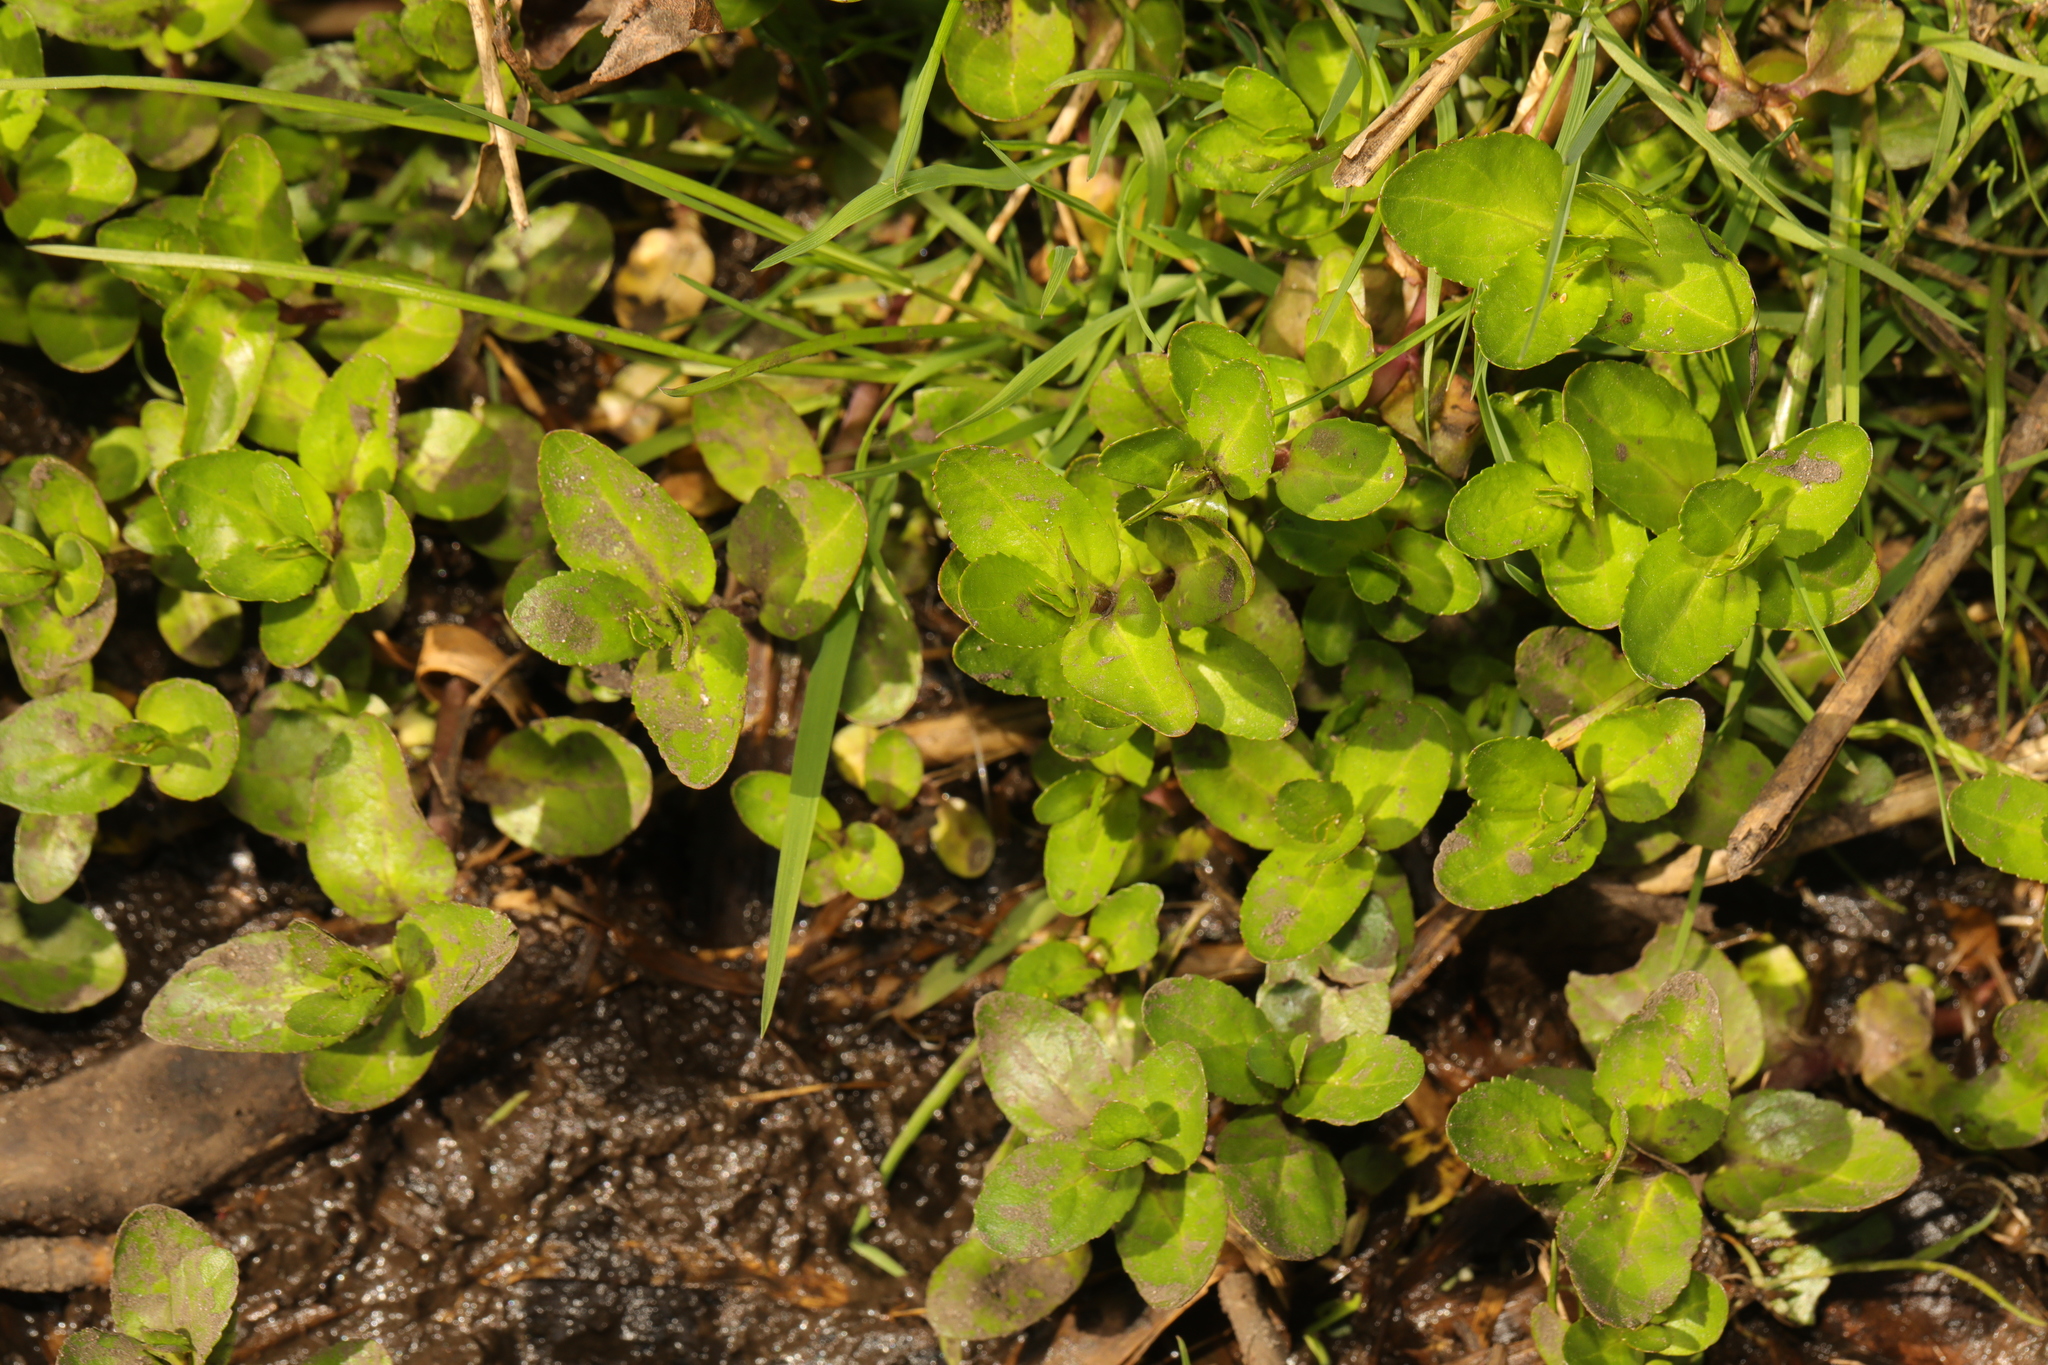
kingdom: Plantae
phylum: Tracheophyta
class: Magnoliopsida
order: Lamiales
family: Plantaginaceae
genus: Veronica
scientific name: Veronica beccabunga
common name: Brooklime
